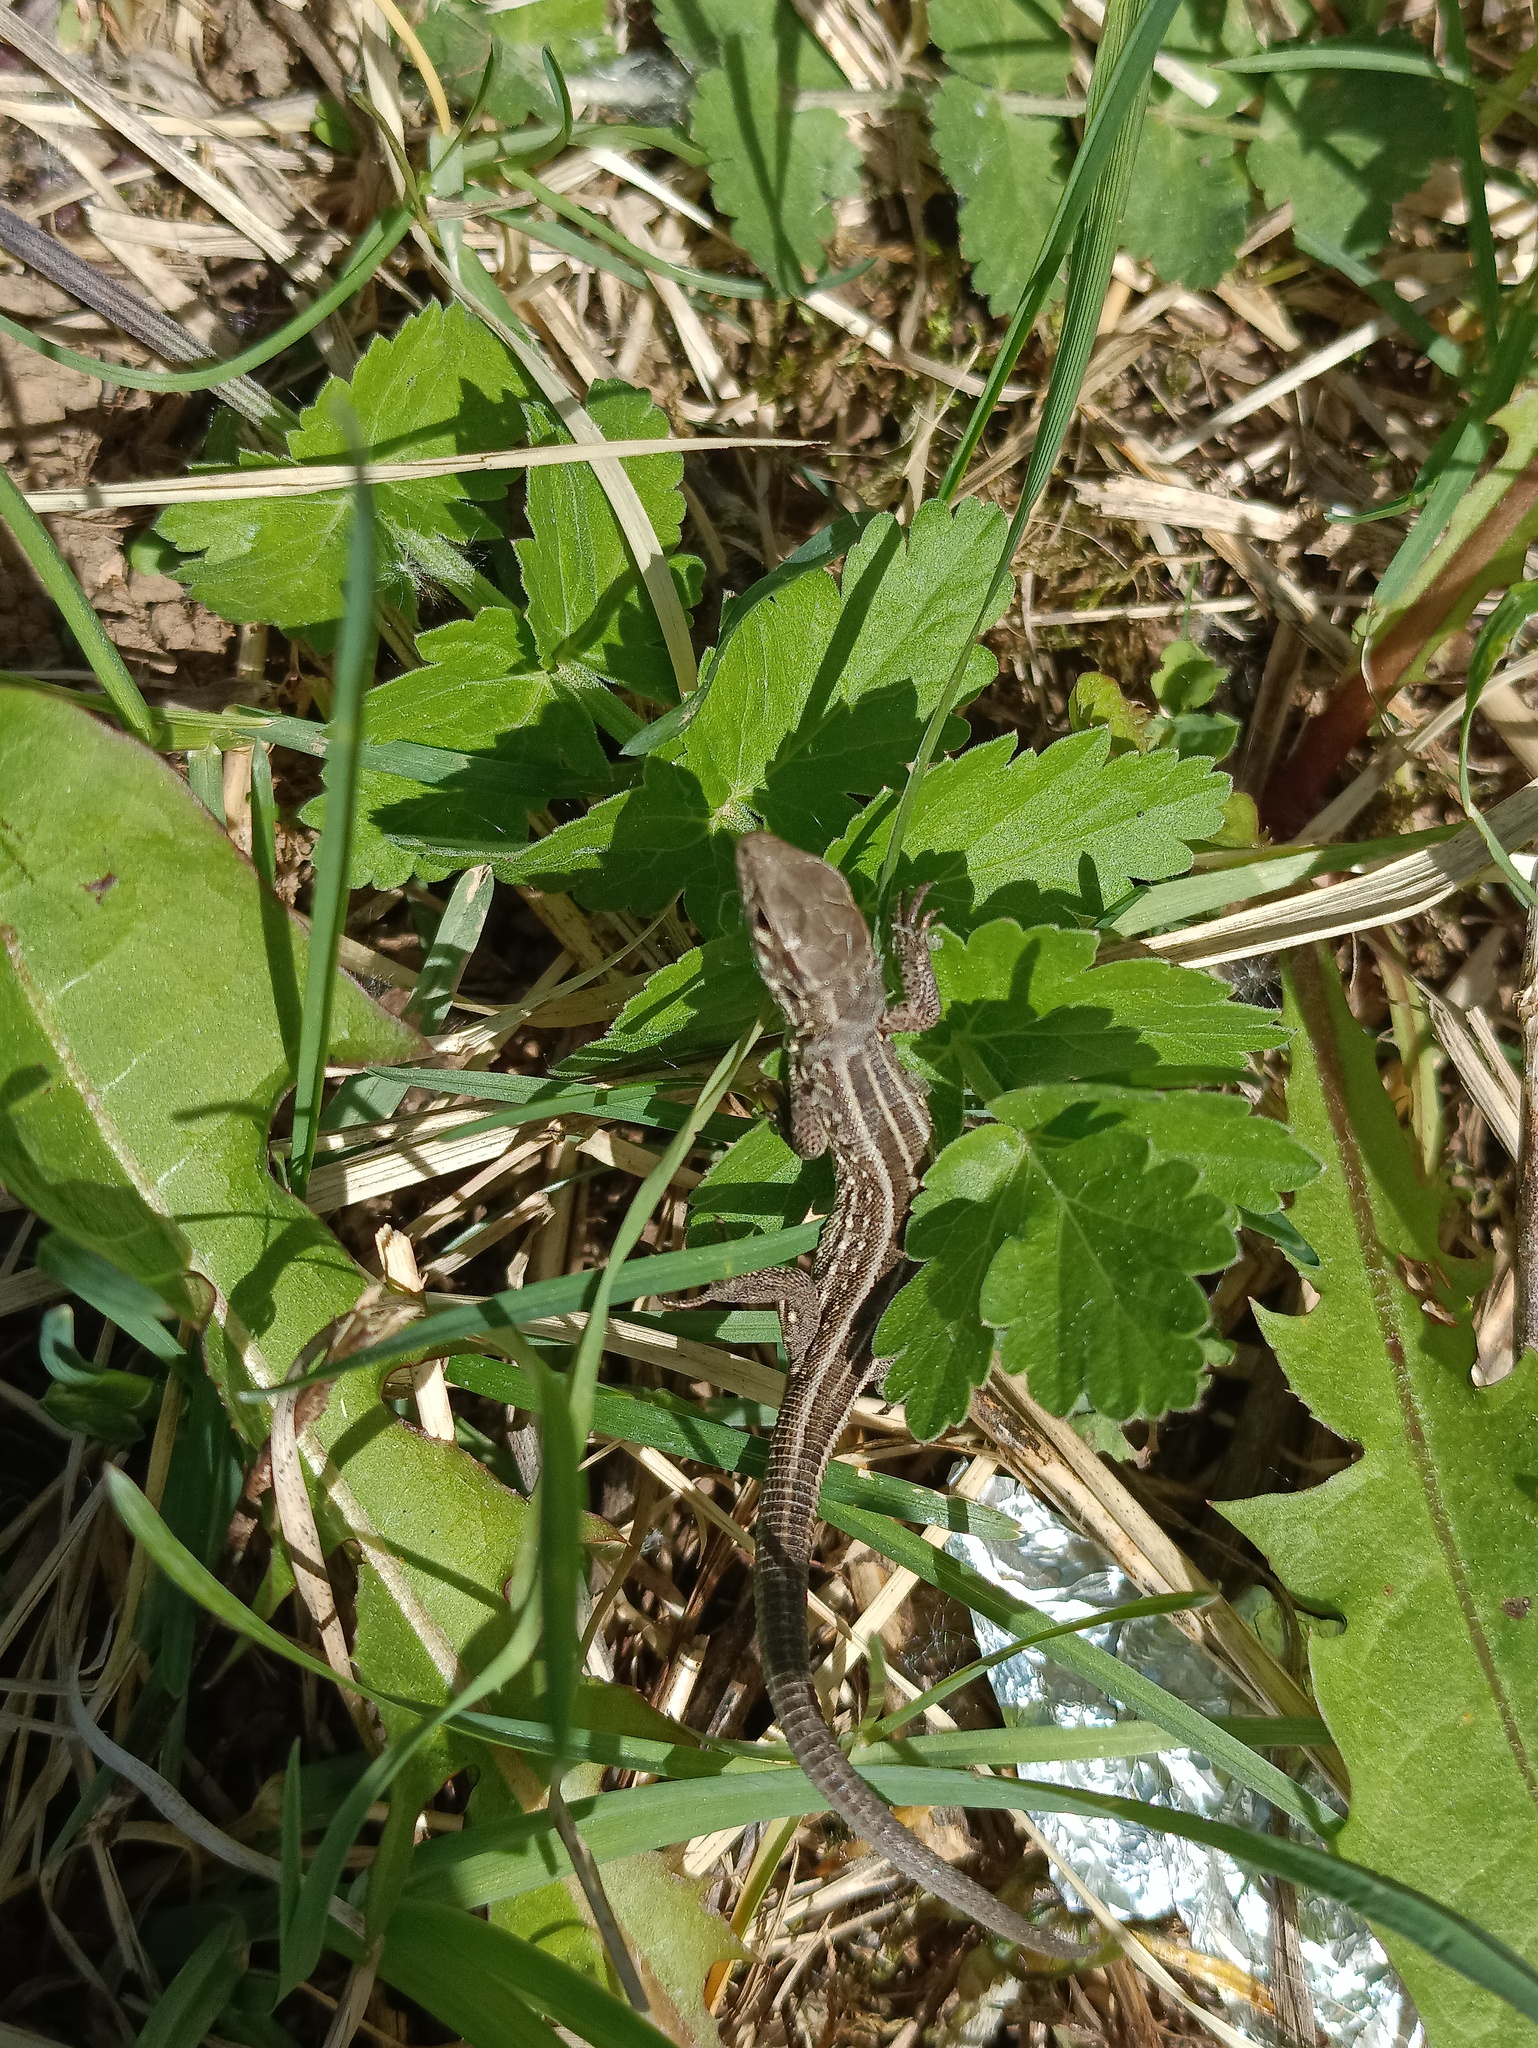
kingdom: Animalia
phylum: Chordata
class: Squamata
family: Lacertidae
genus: Lacerta
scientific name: Lacerta agilis
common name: Sand lizard
